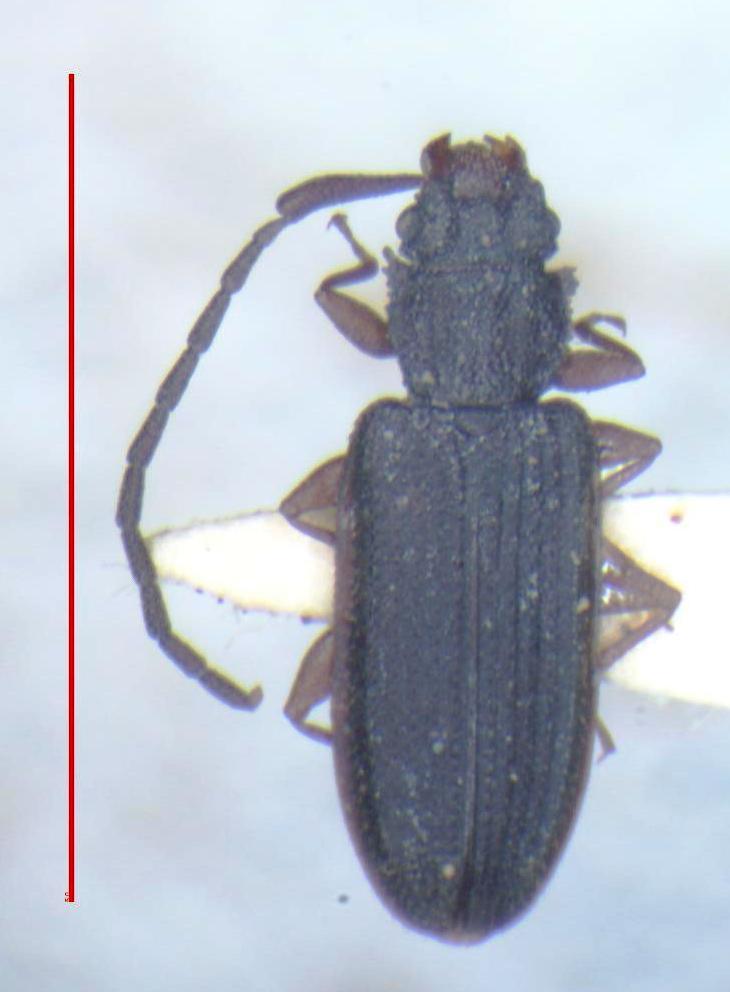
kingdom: Animalia
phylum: Arthropoda
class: Insecta
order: Coleoptera
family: Silvanidae
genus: Uleiota
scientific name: Uleiota planatus
